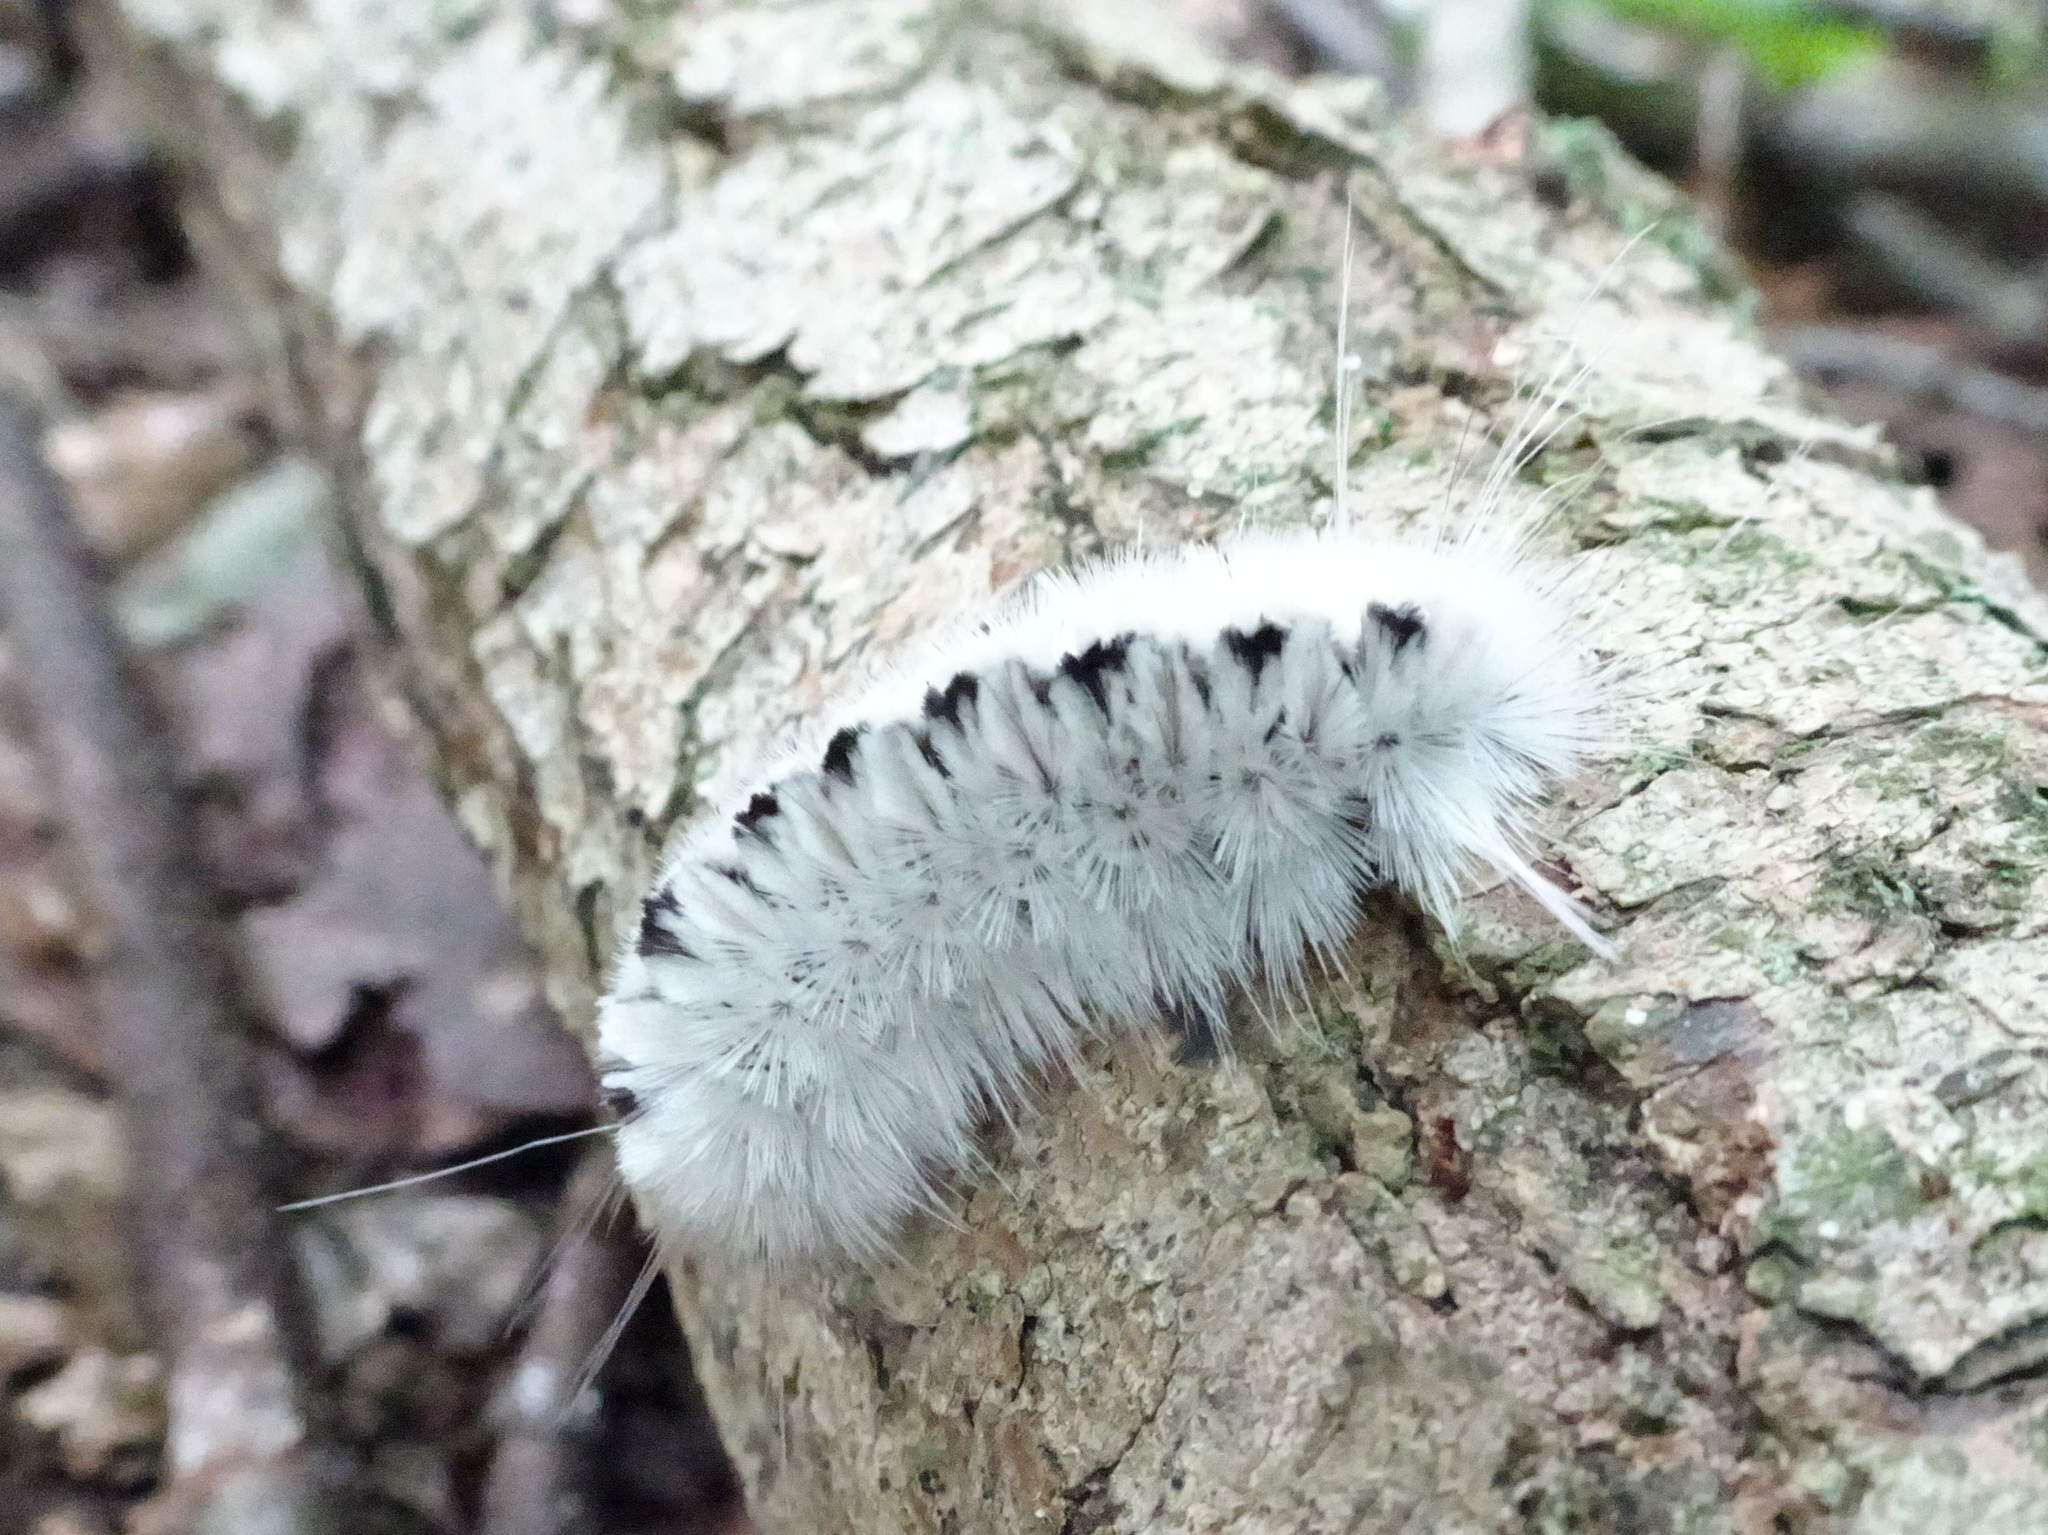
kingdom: Animalia
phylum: Arthropoda
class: Insecta
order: Lepidoptera
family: Erebidae
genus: Lophocampa
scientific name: Lophocampa caryae
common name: Hickory tussock moth
